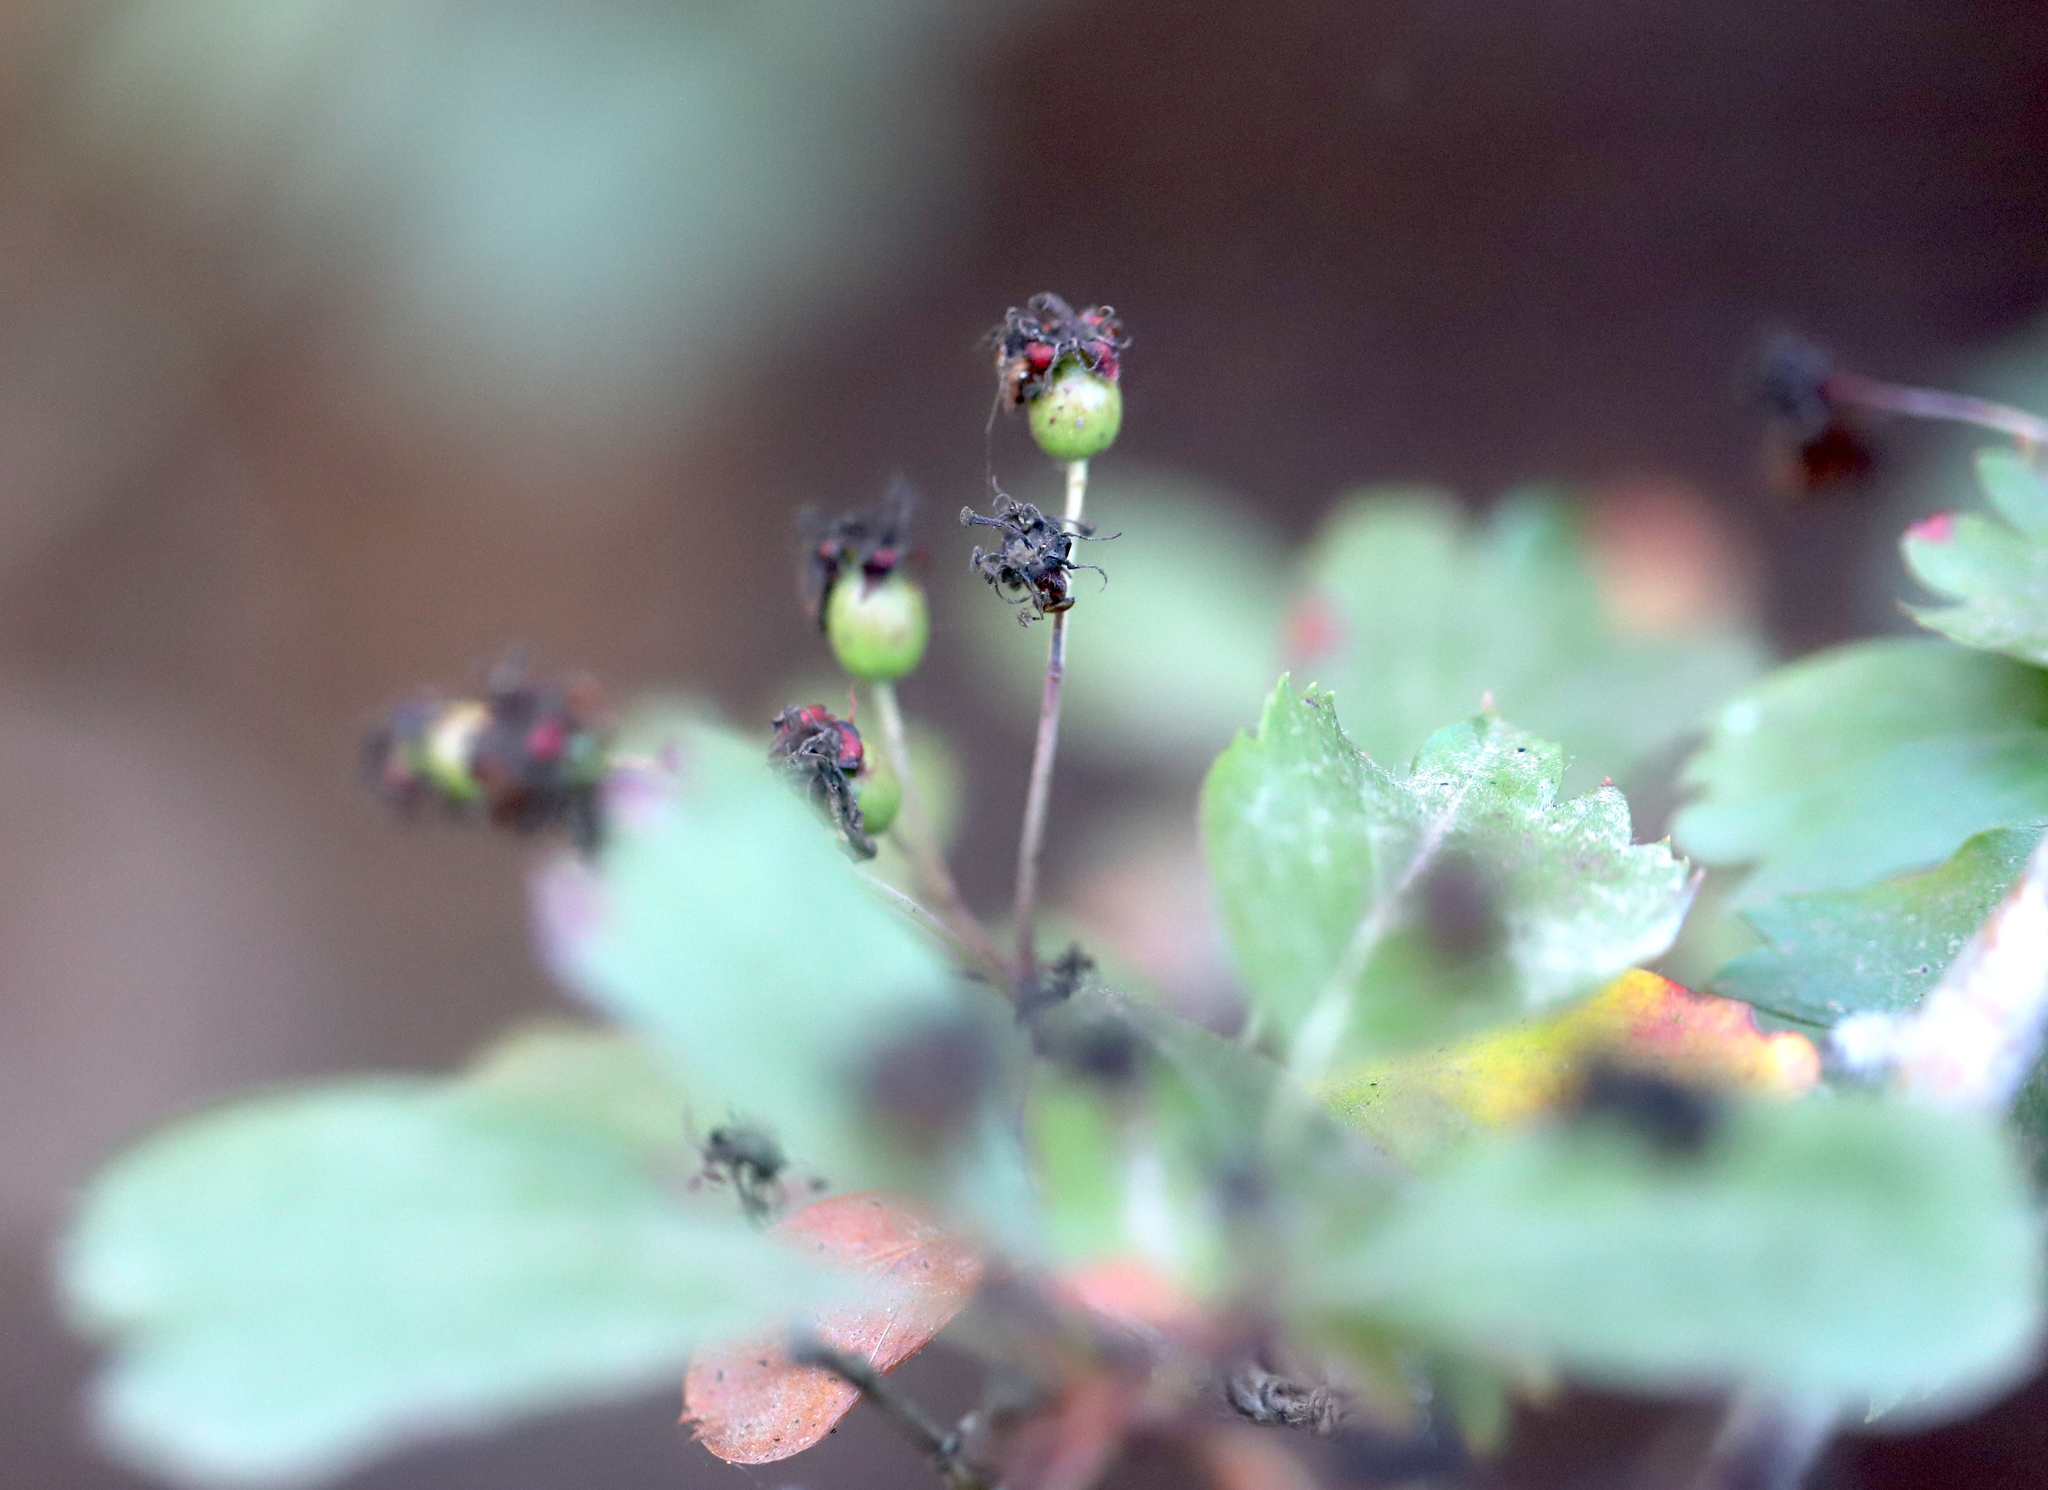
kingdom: Plantae
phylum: Tracheophyta
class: Magnoliopsida
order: Rosales
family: Rosaceae
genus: Crataegus
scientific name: Crataegus monogyna
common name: Hawthorn
